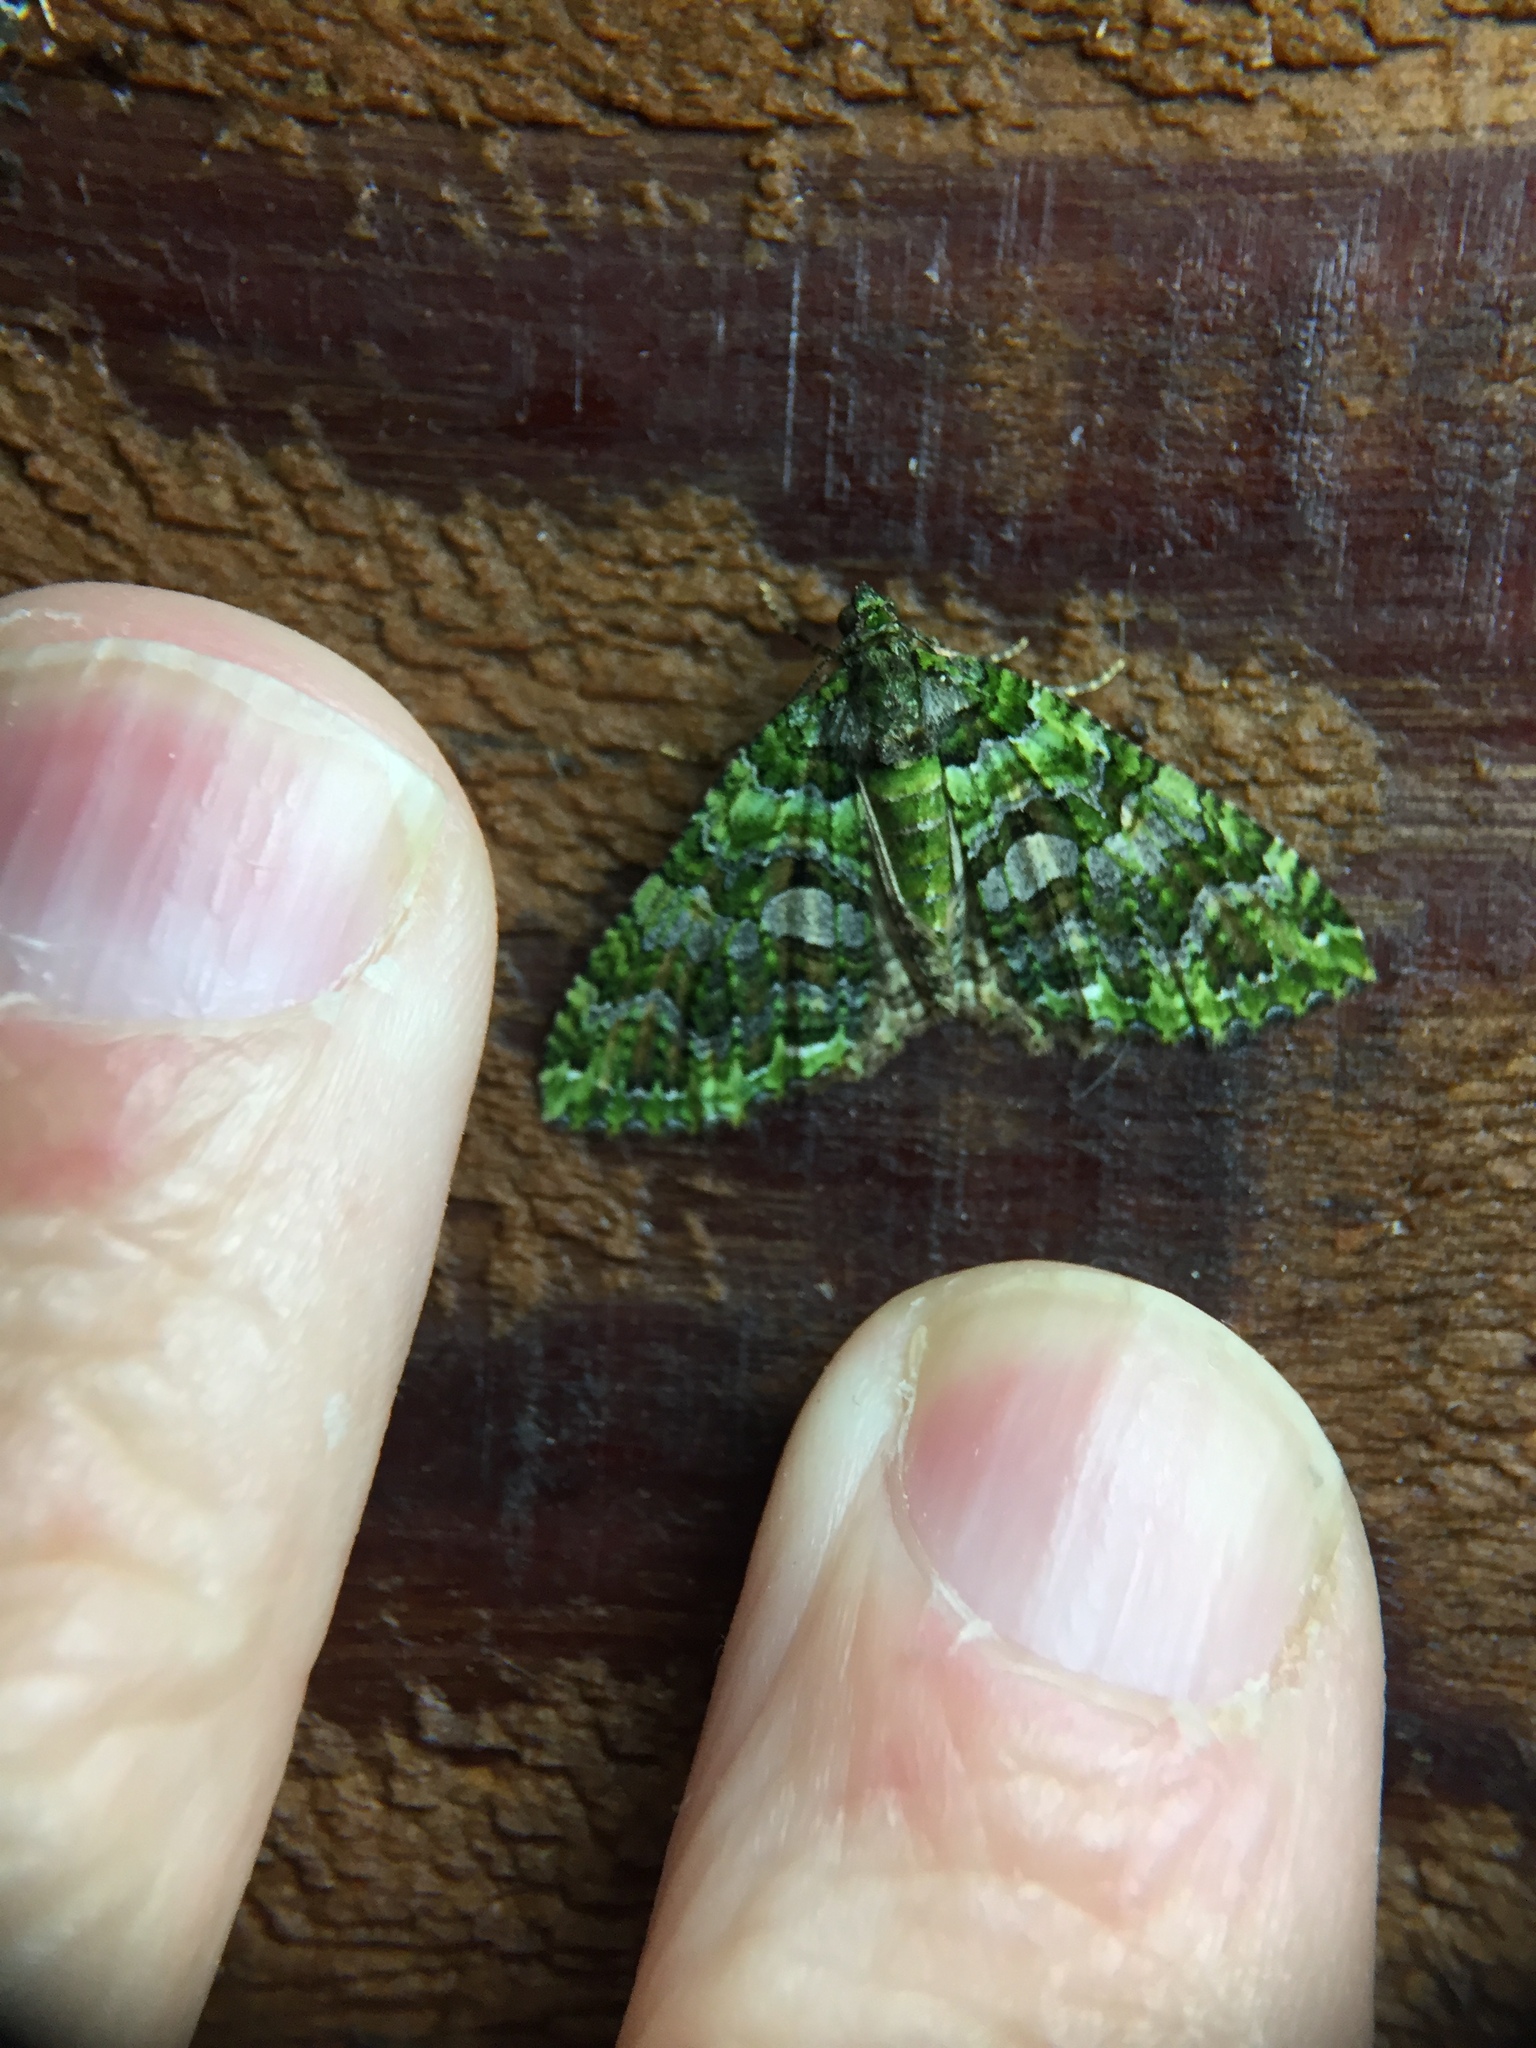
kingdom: Animalia
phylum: Arthropoda
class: Insecta
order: Lepidoptera
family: Geometridae
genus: Austrocidaria
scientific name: Austrocidaria similata
